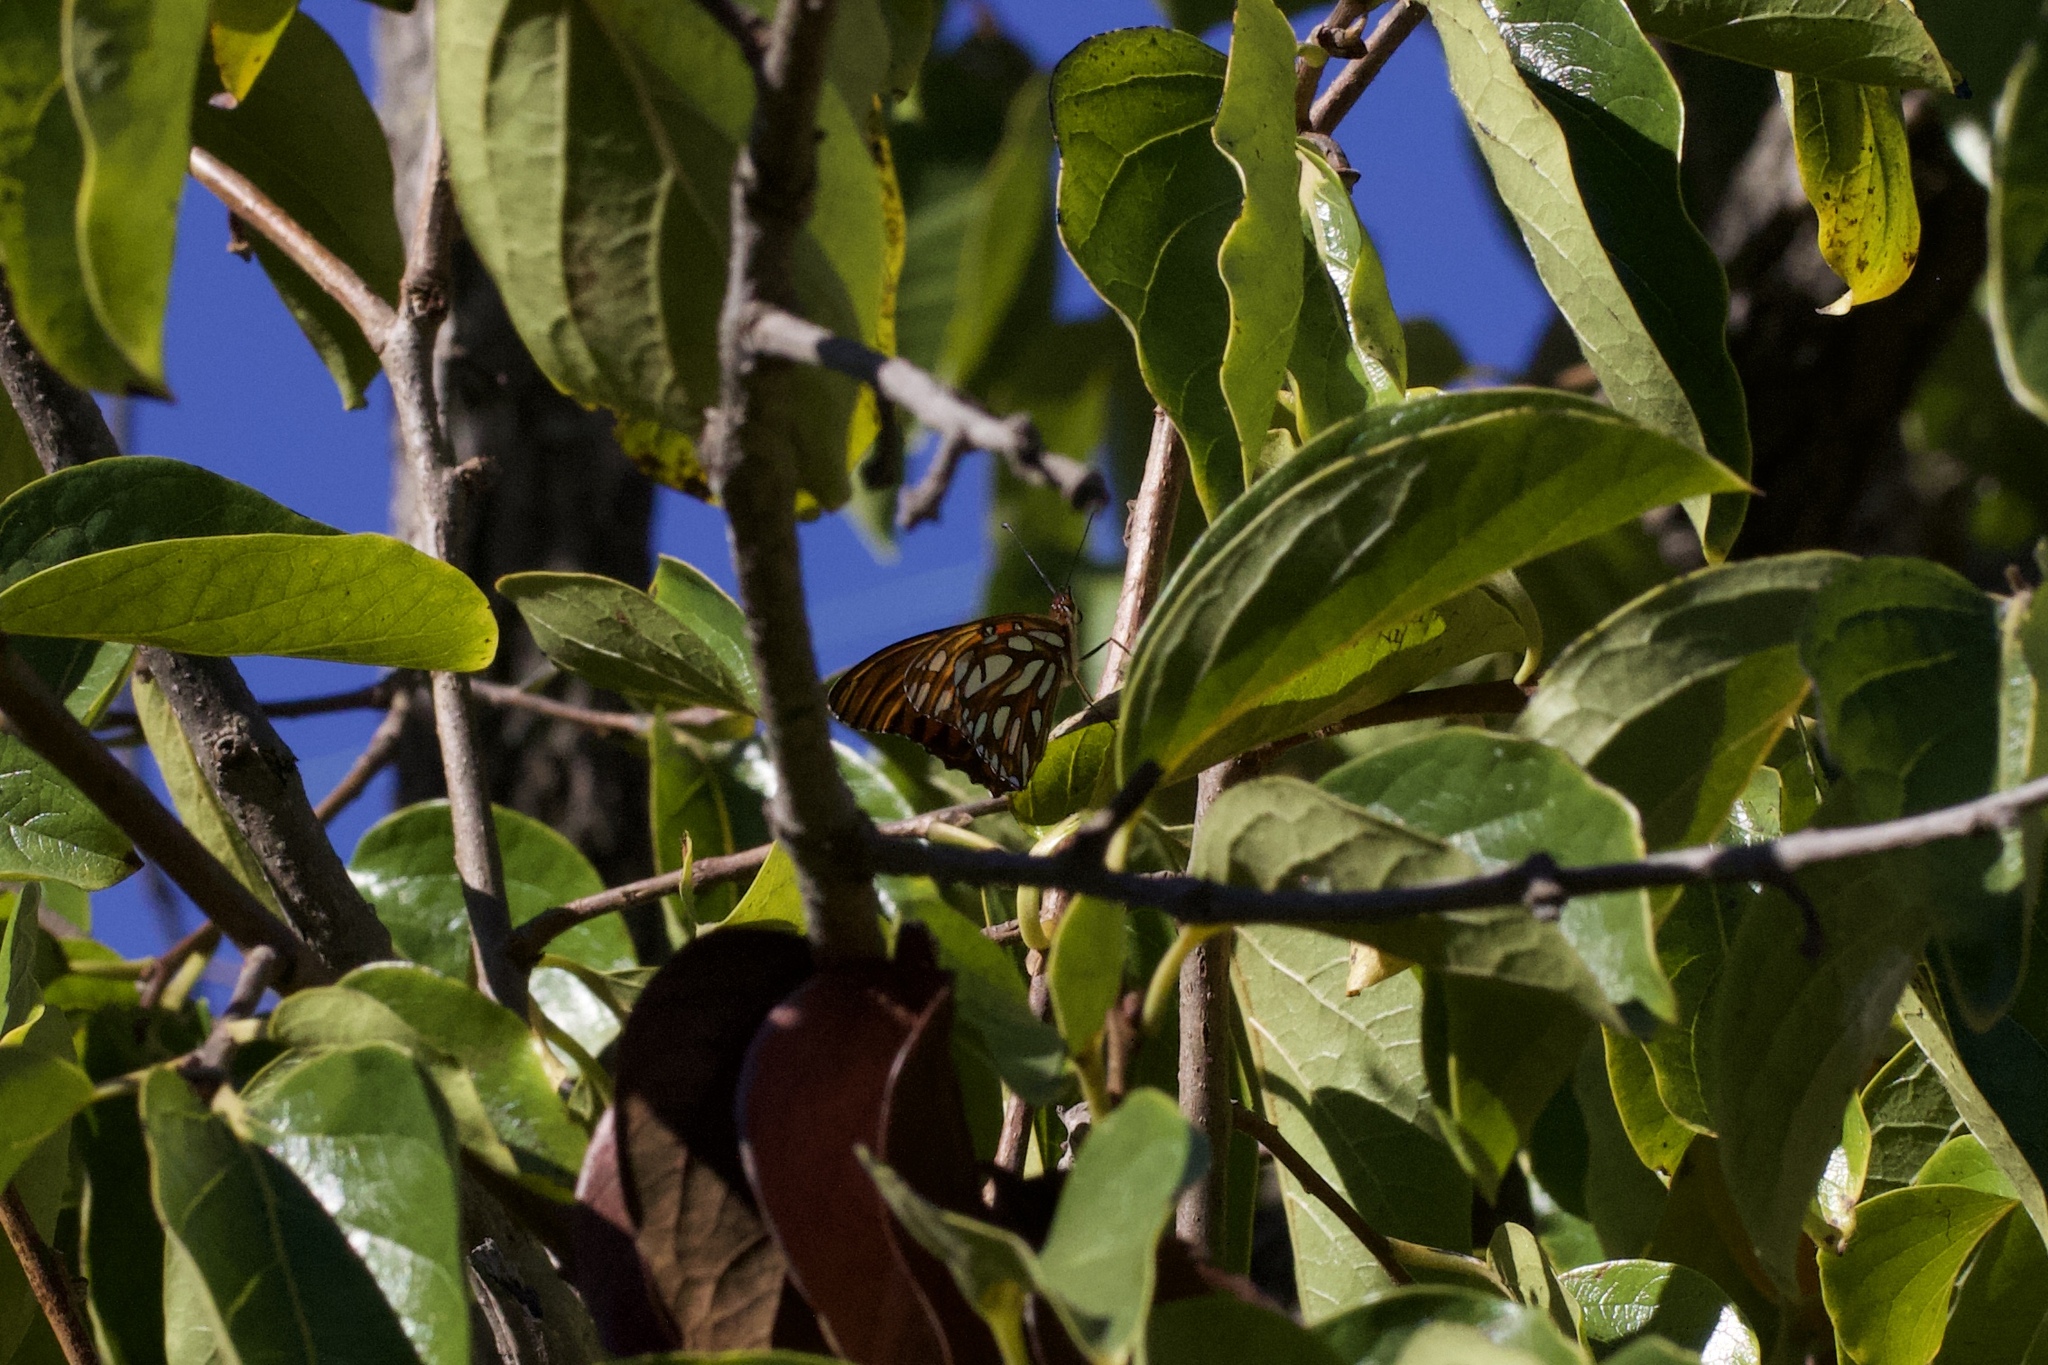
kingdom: Animalia
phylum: Arthropoda
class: Insecta
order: Lepidoptera
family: Nymphalidae
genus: Dione
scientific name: Dione vanillae
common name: Gulf fritillary
